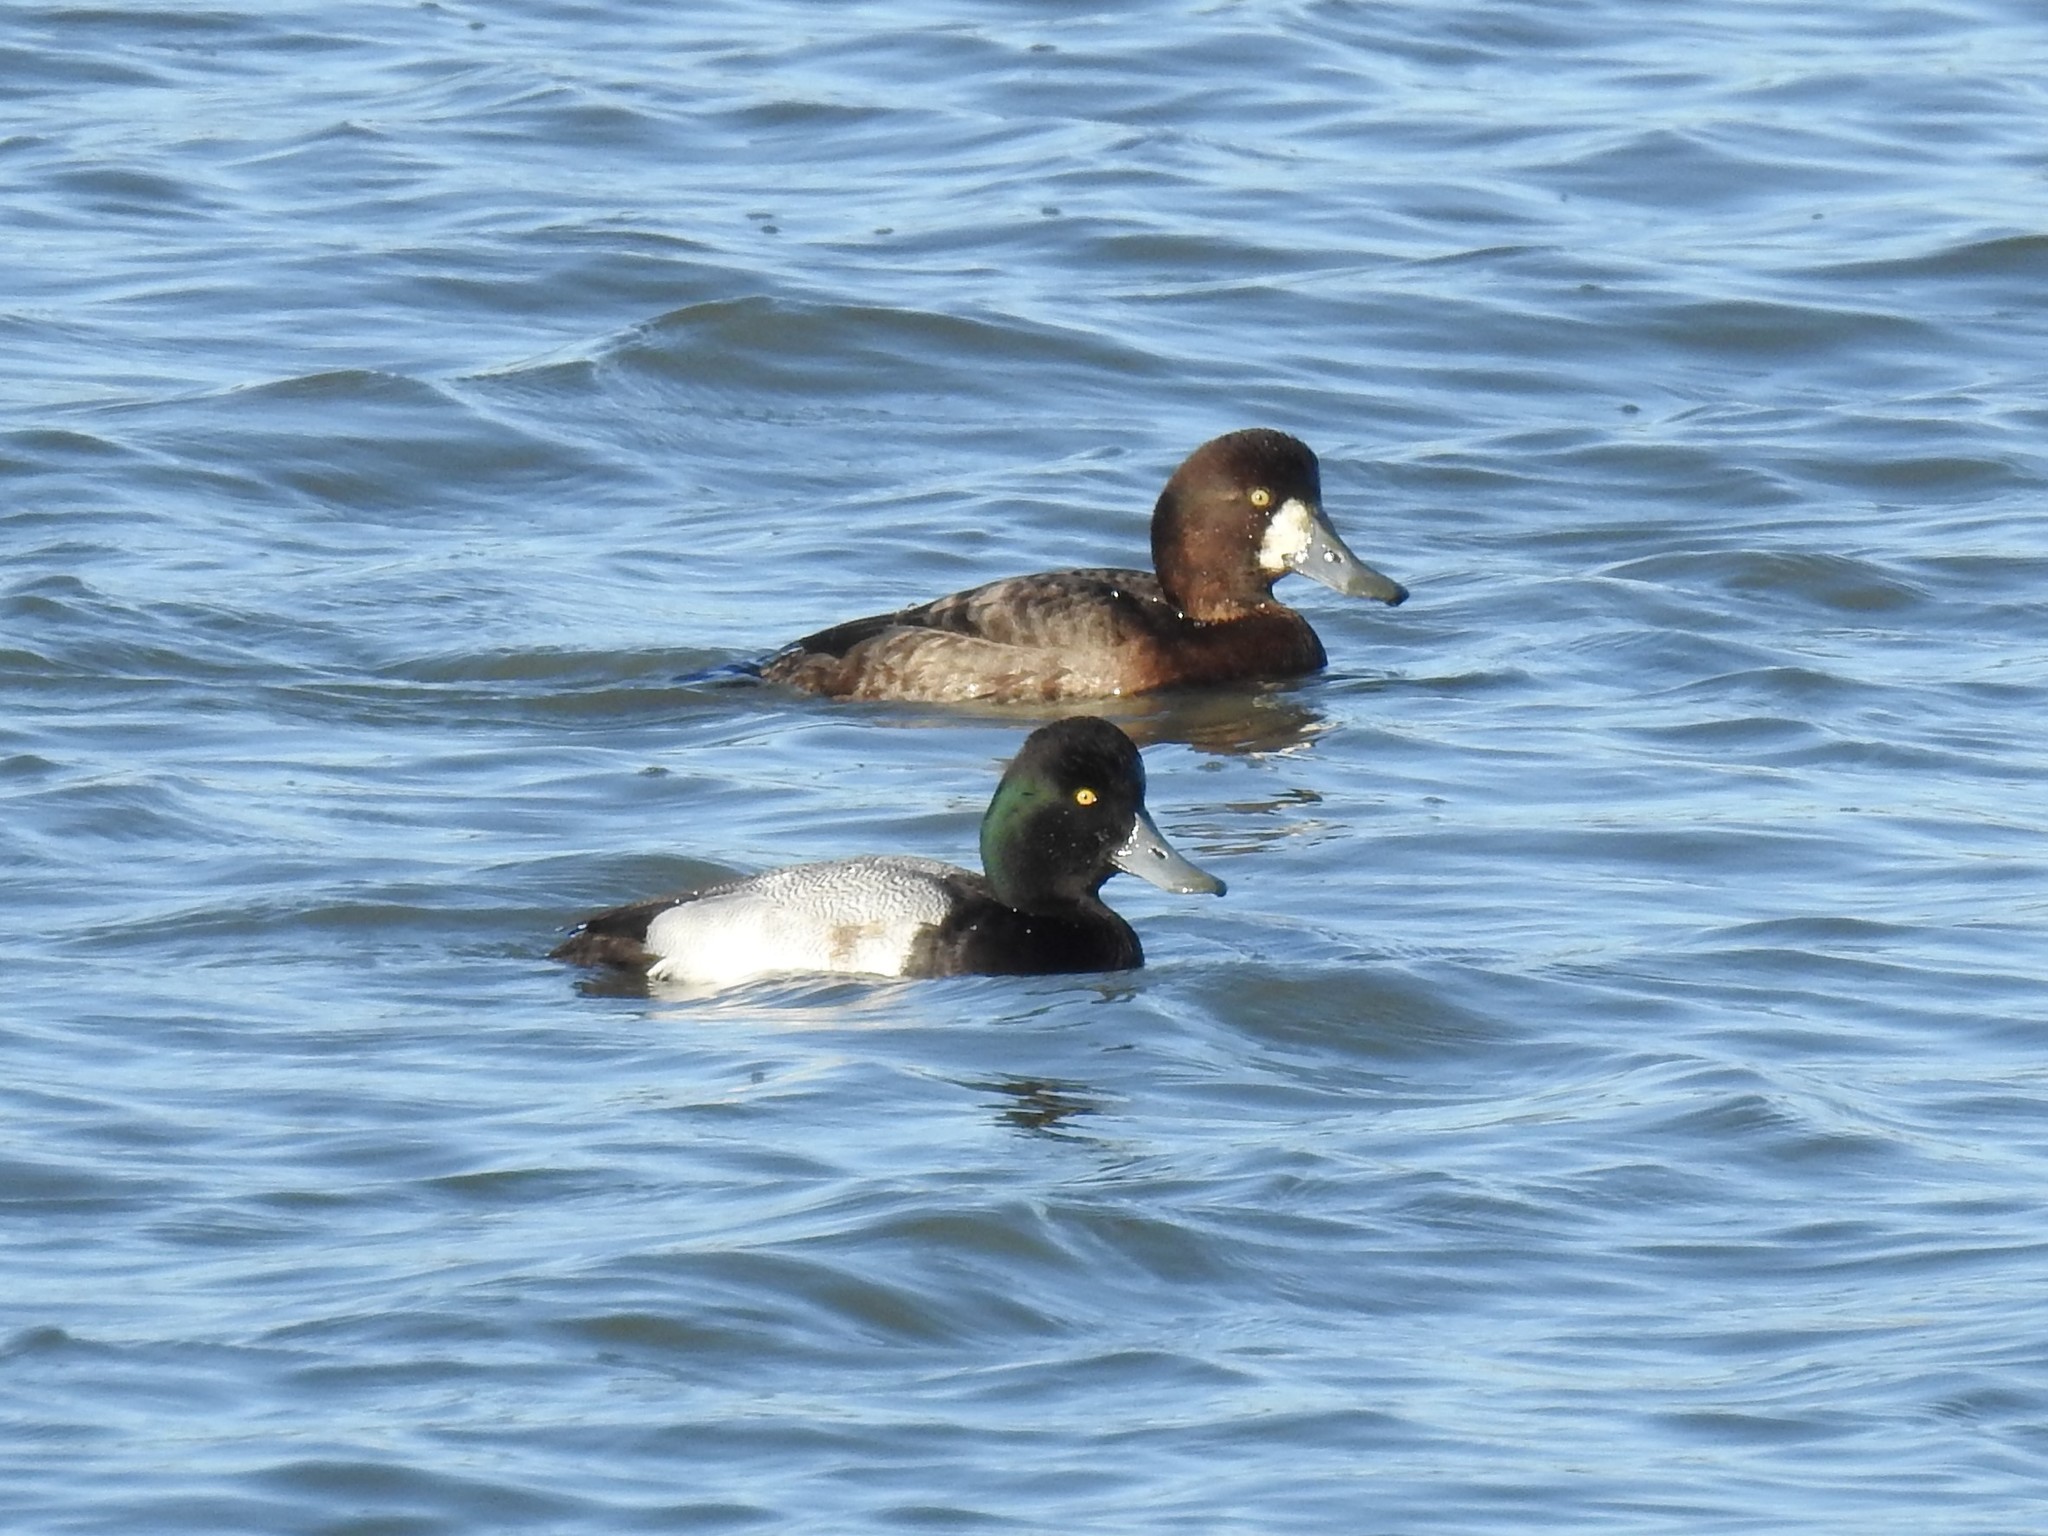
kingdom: Animalia
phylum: Chordata
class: Aves
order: Anseriformes
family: Anatidae
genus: Aythya
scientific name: Aythya marila
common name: Greater scaup
